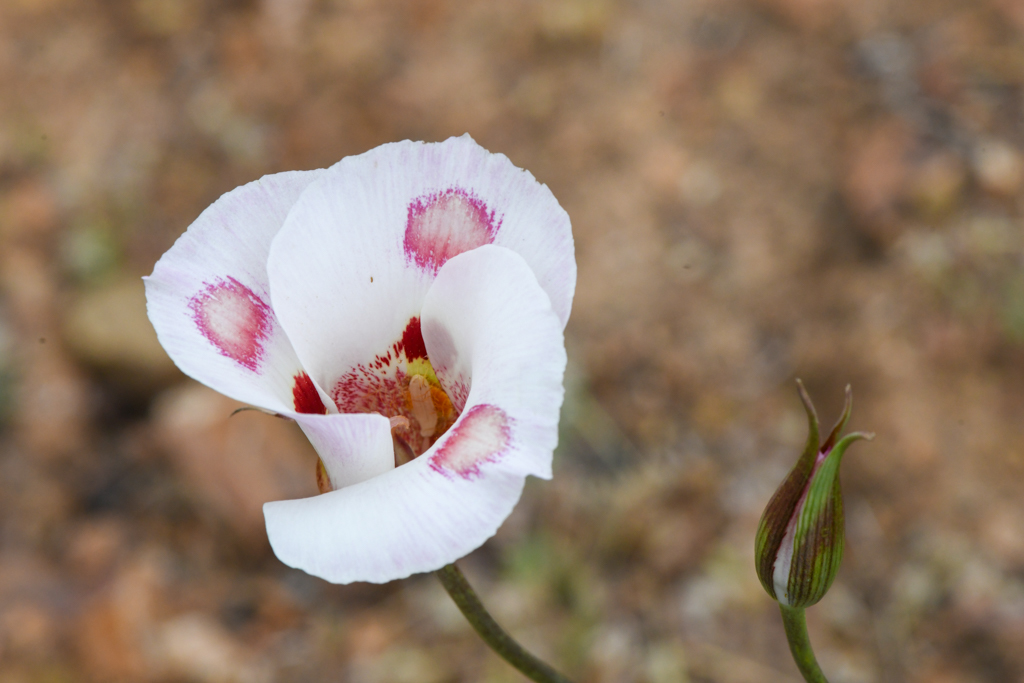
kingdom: Plantae
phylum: Tracheophyta
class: Liliopsida
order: Liliales
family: Liliaceae
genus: Calochortus
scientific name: Calochortus venustus
